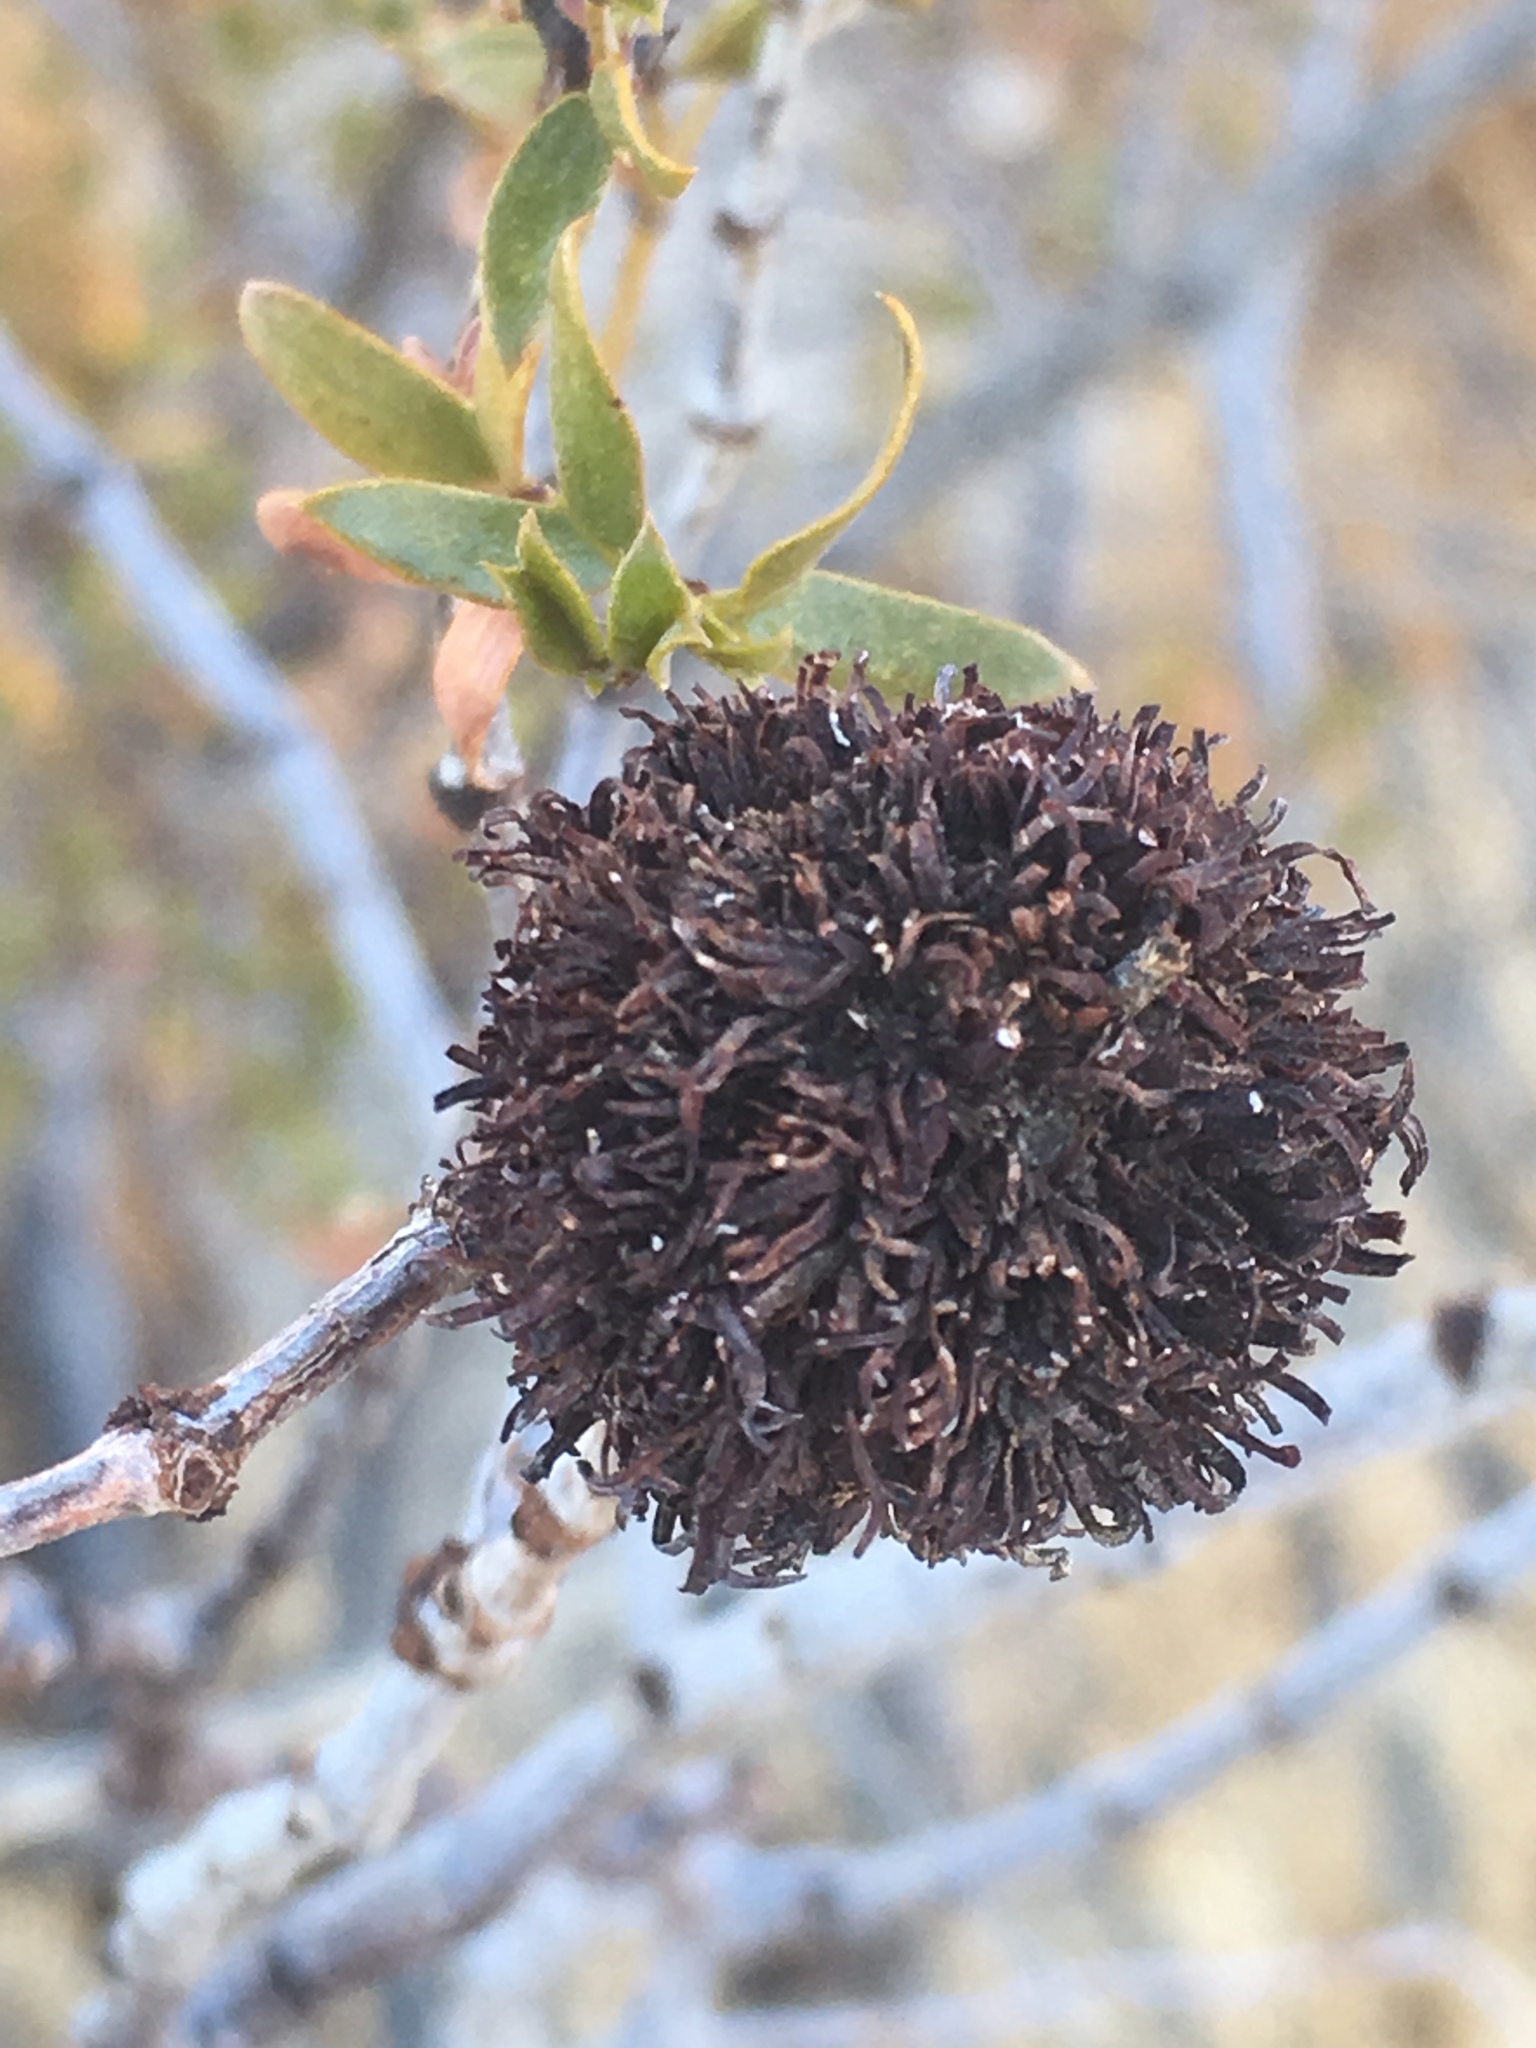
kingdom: Animalia
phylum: Arthropoda
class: Insecta
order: Diptera
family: Cecidomyiidae
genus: Asphondylia
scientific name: Asphondylia auripila
